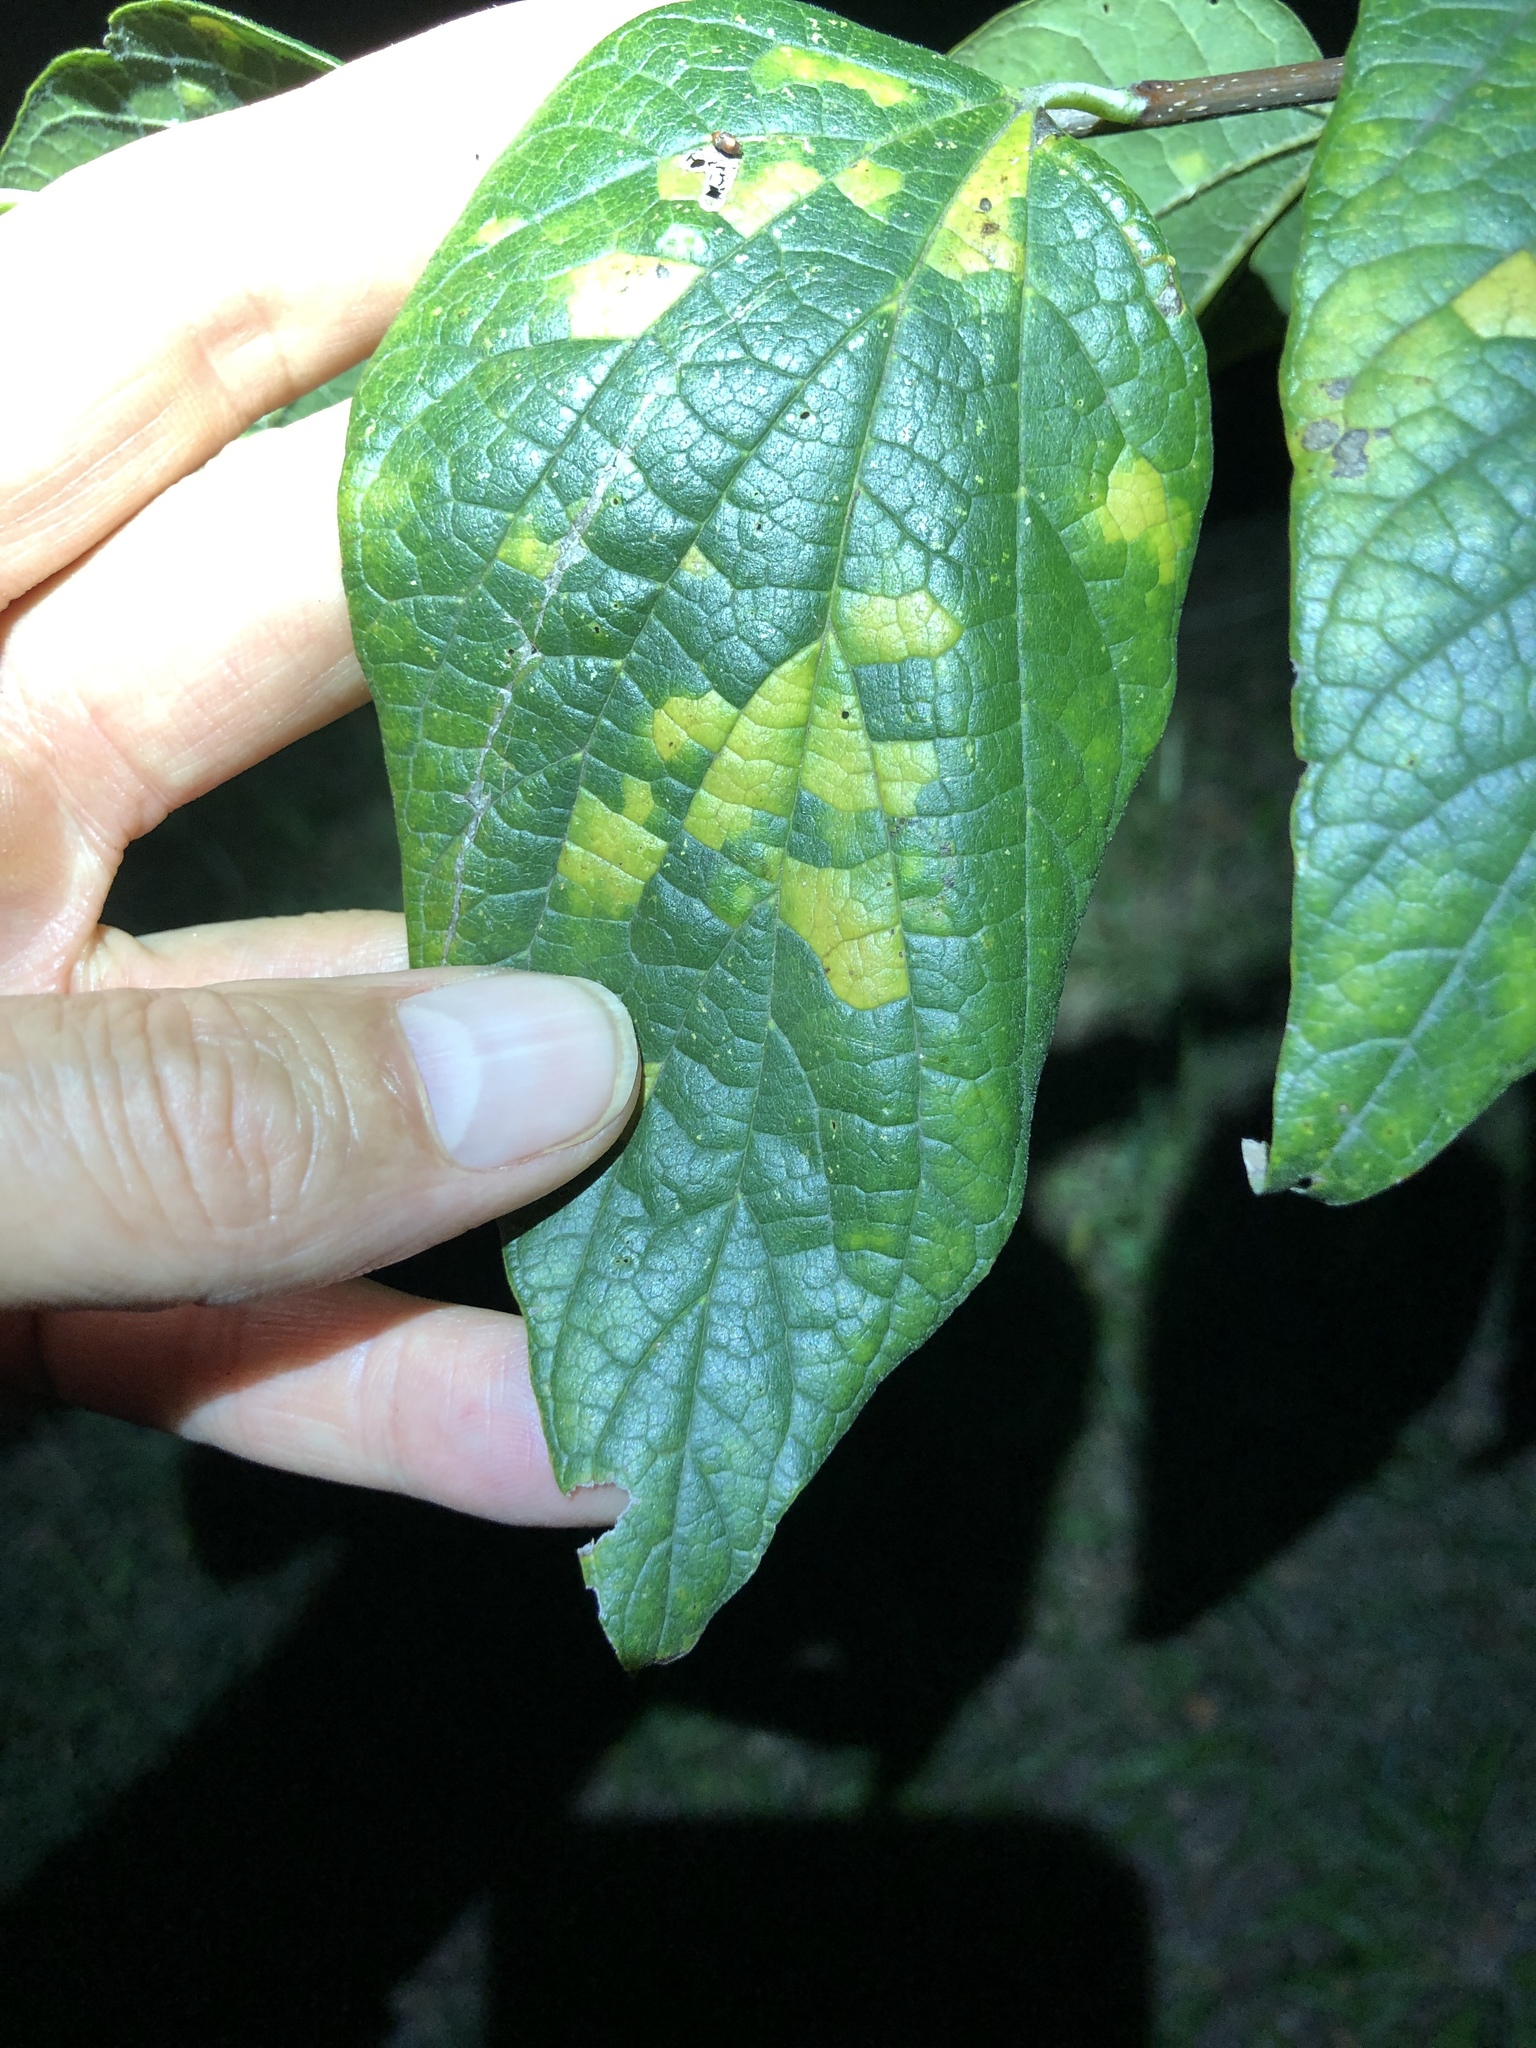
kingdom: Viruses
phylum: Kitrinoviricota
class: Alsuviricetes
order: Martellivirales
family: Closteroviridae
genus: Ampelovirus
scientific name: Ampelovirus
